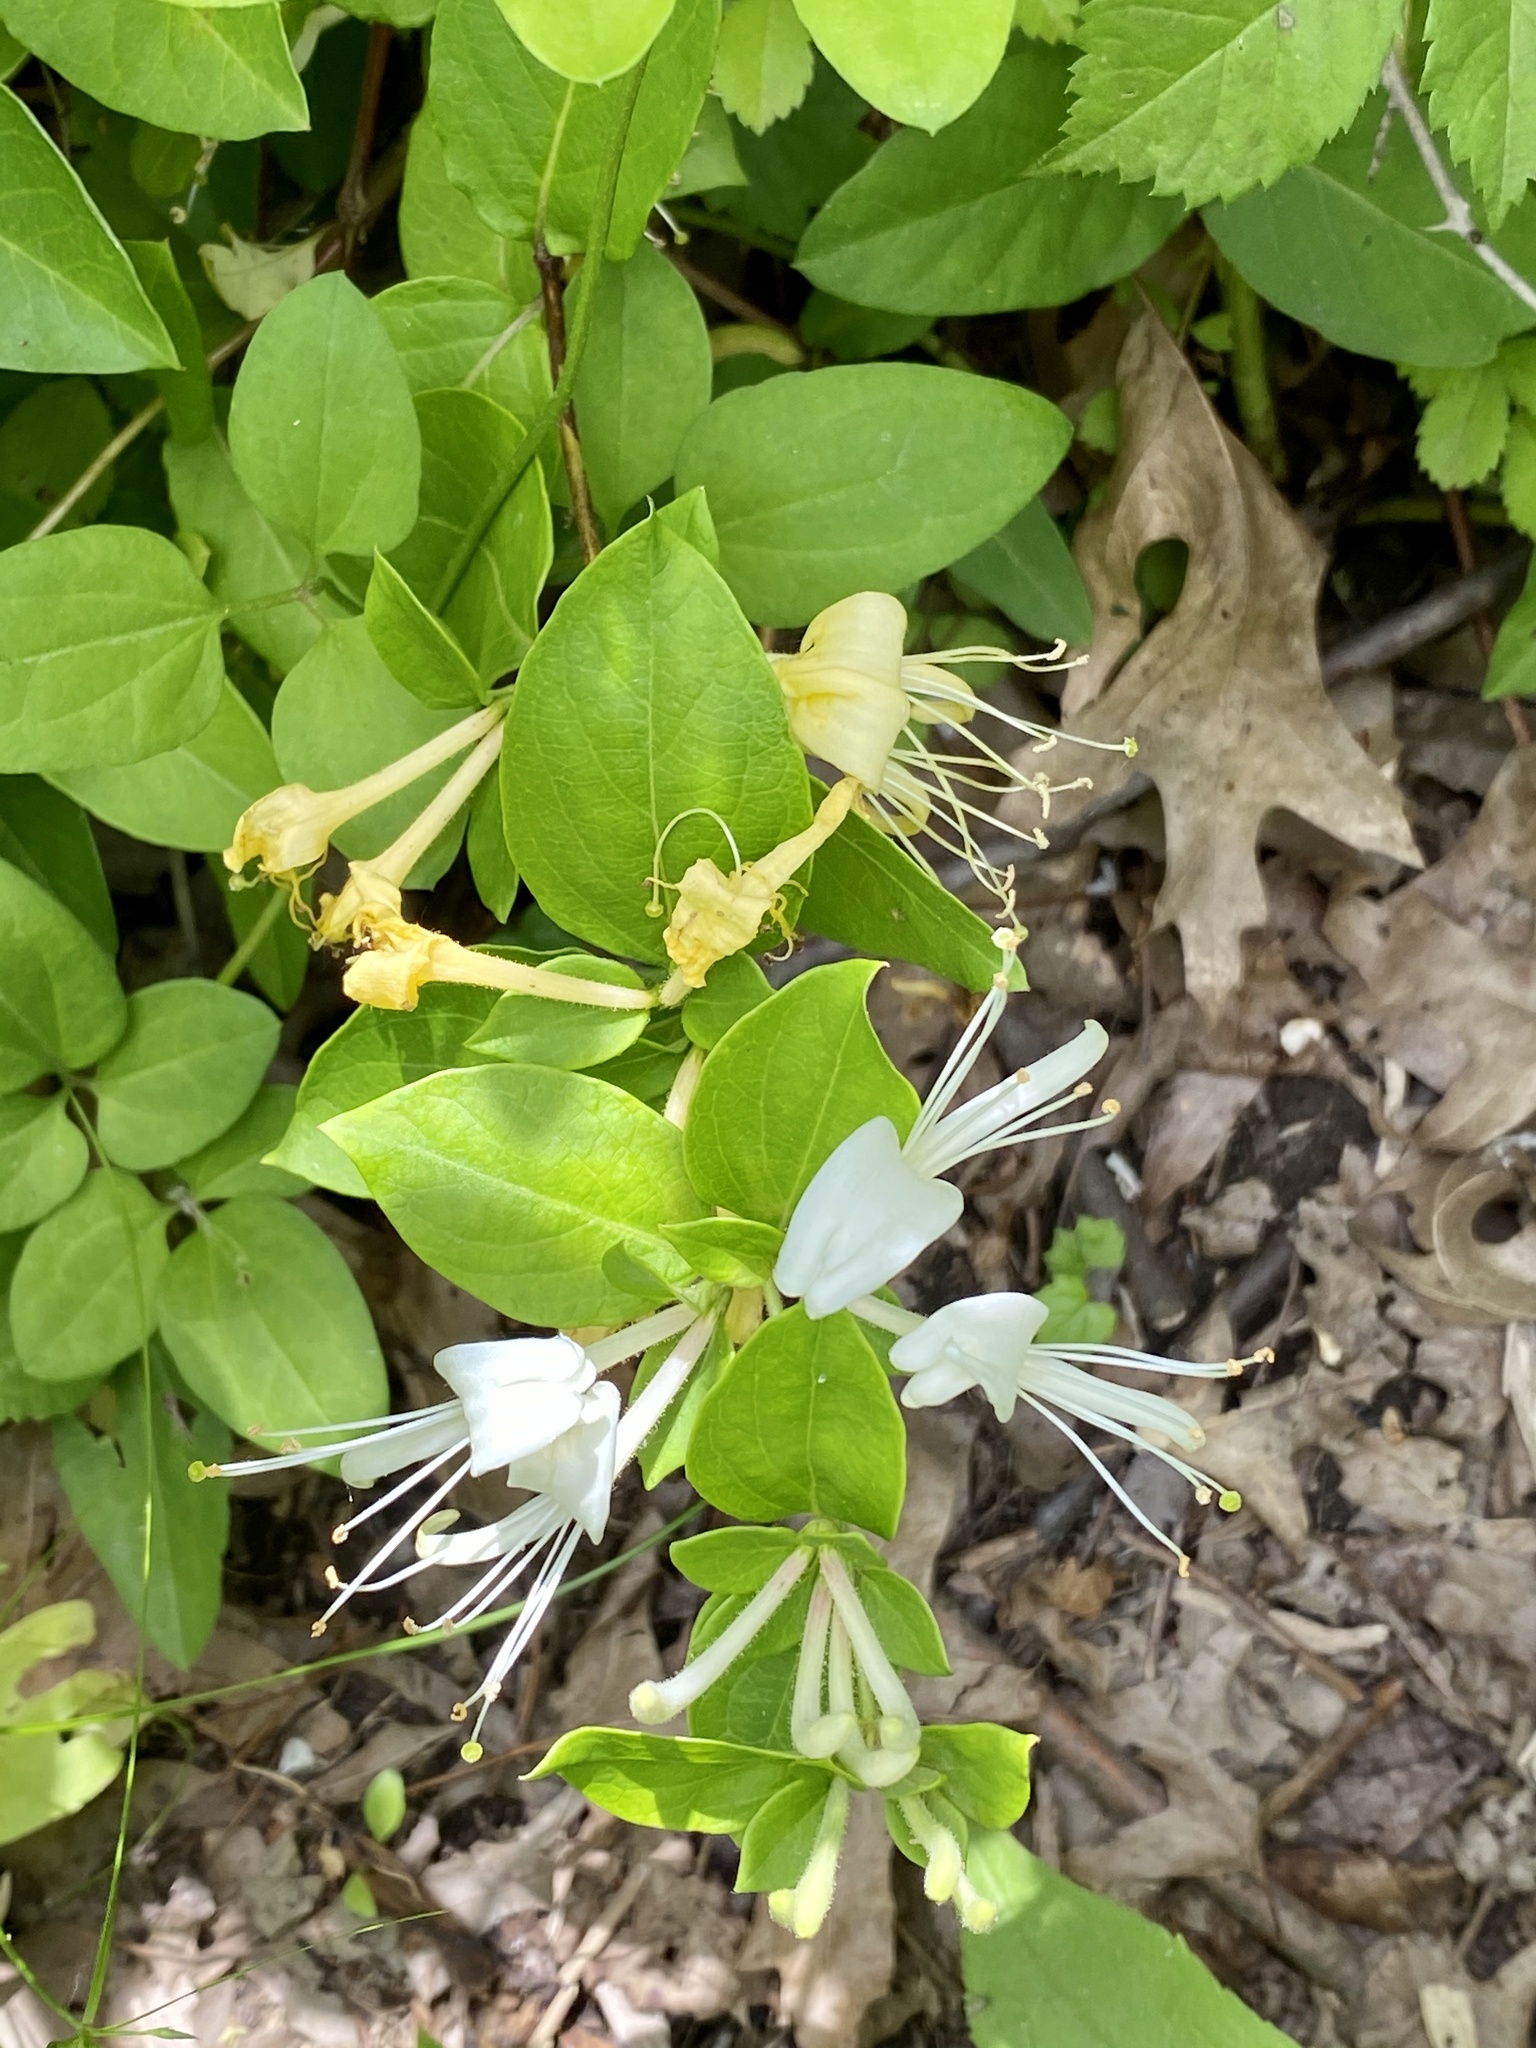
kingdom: Plantae
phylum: Tracheophyta
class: Magnoliopsida
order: Dipsacales
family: Caprifoliaceae
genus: Lonicera
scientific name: Lonicera japonica
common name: Japanese honeysuckle
